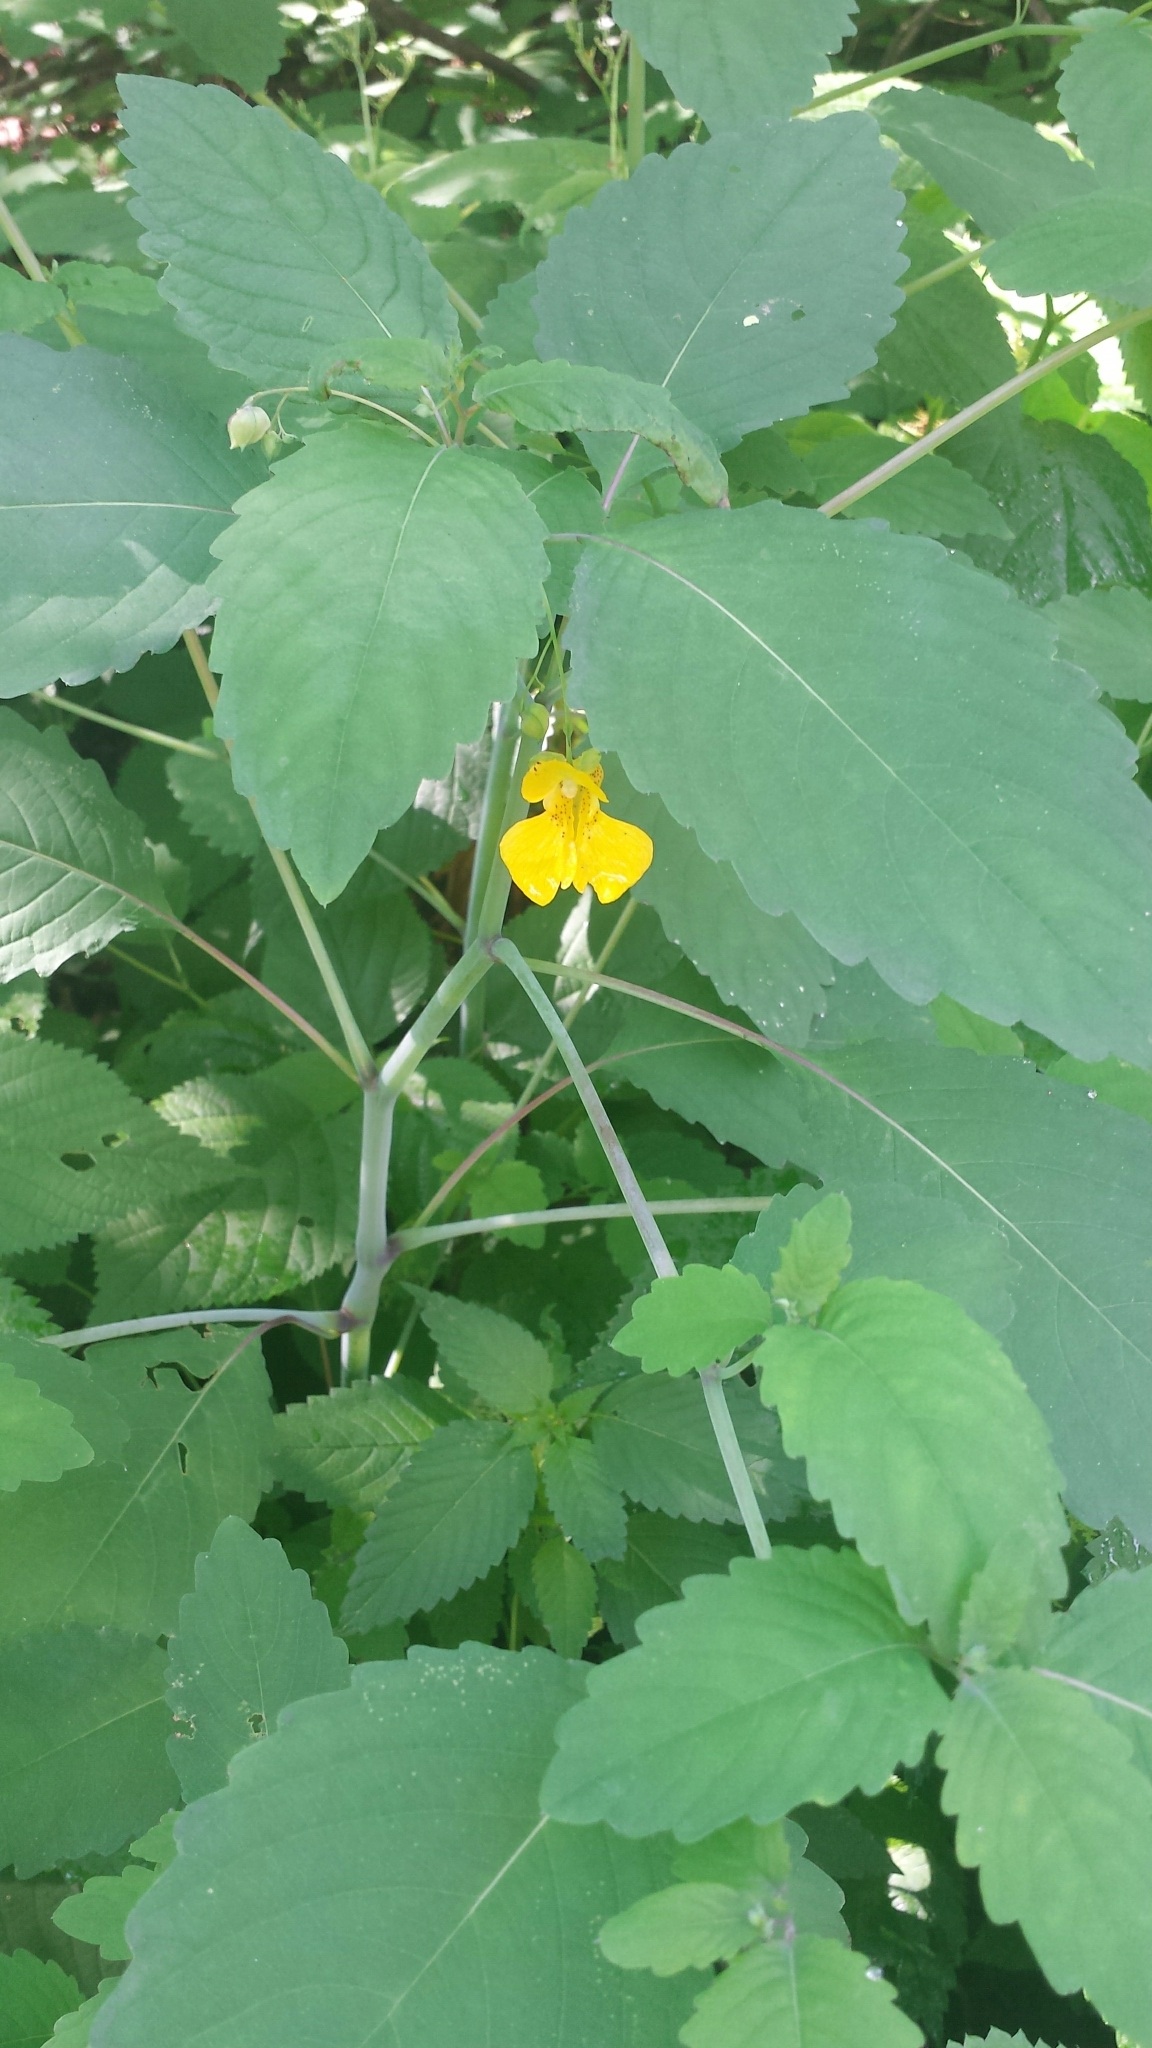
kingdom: Plantae
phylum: Tracheophyta
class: Magnoliopsida
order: Ericales
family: Balsaminaceae
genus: Impatiens
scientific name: Impatiens pallida
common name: Pale snapweed
